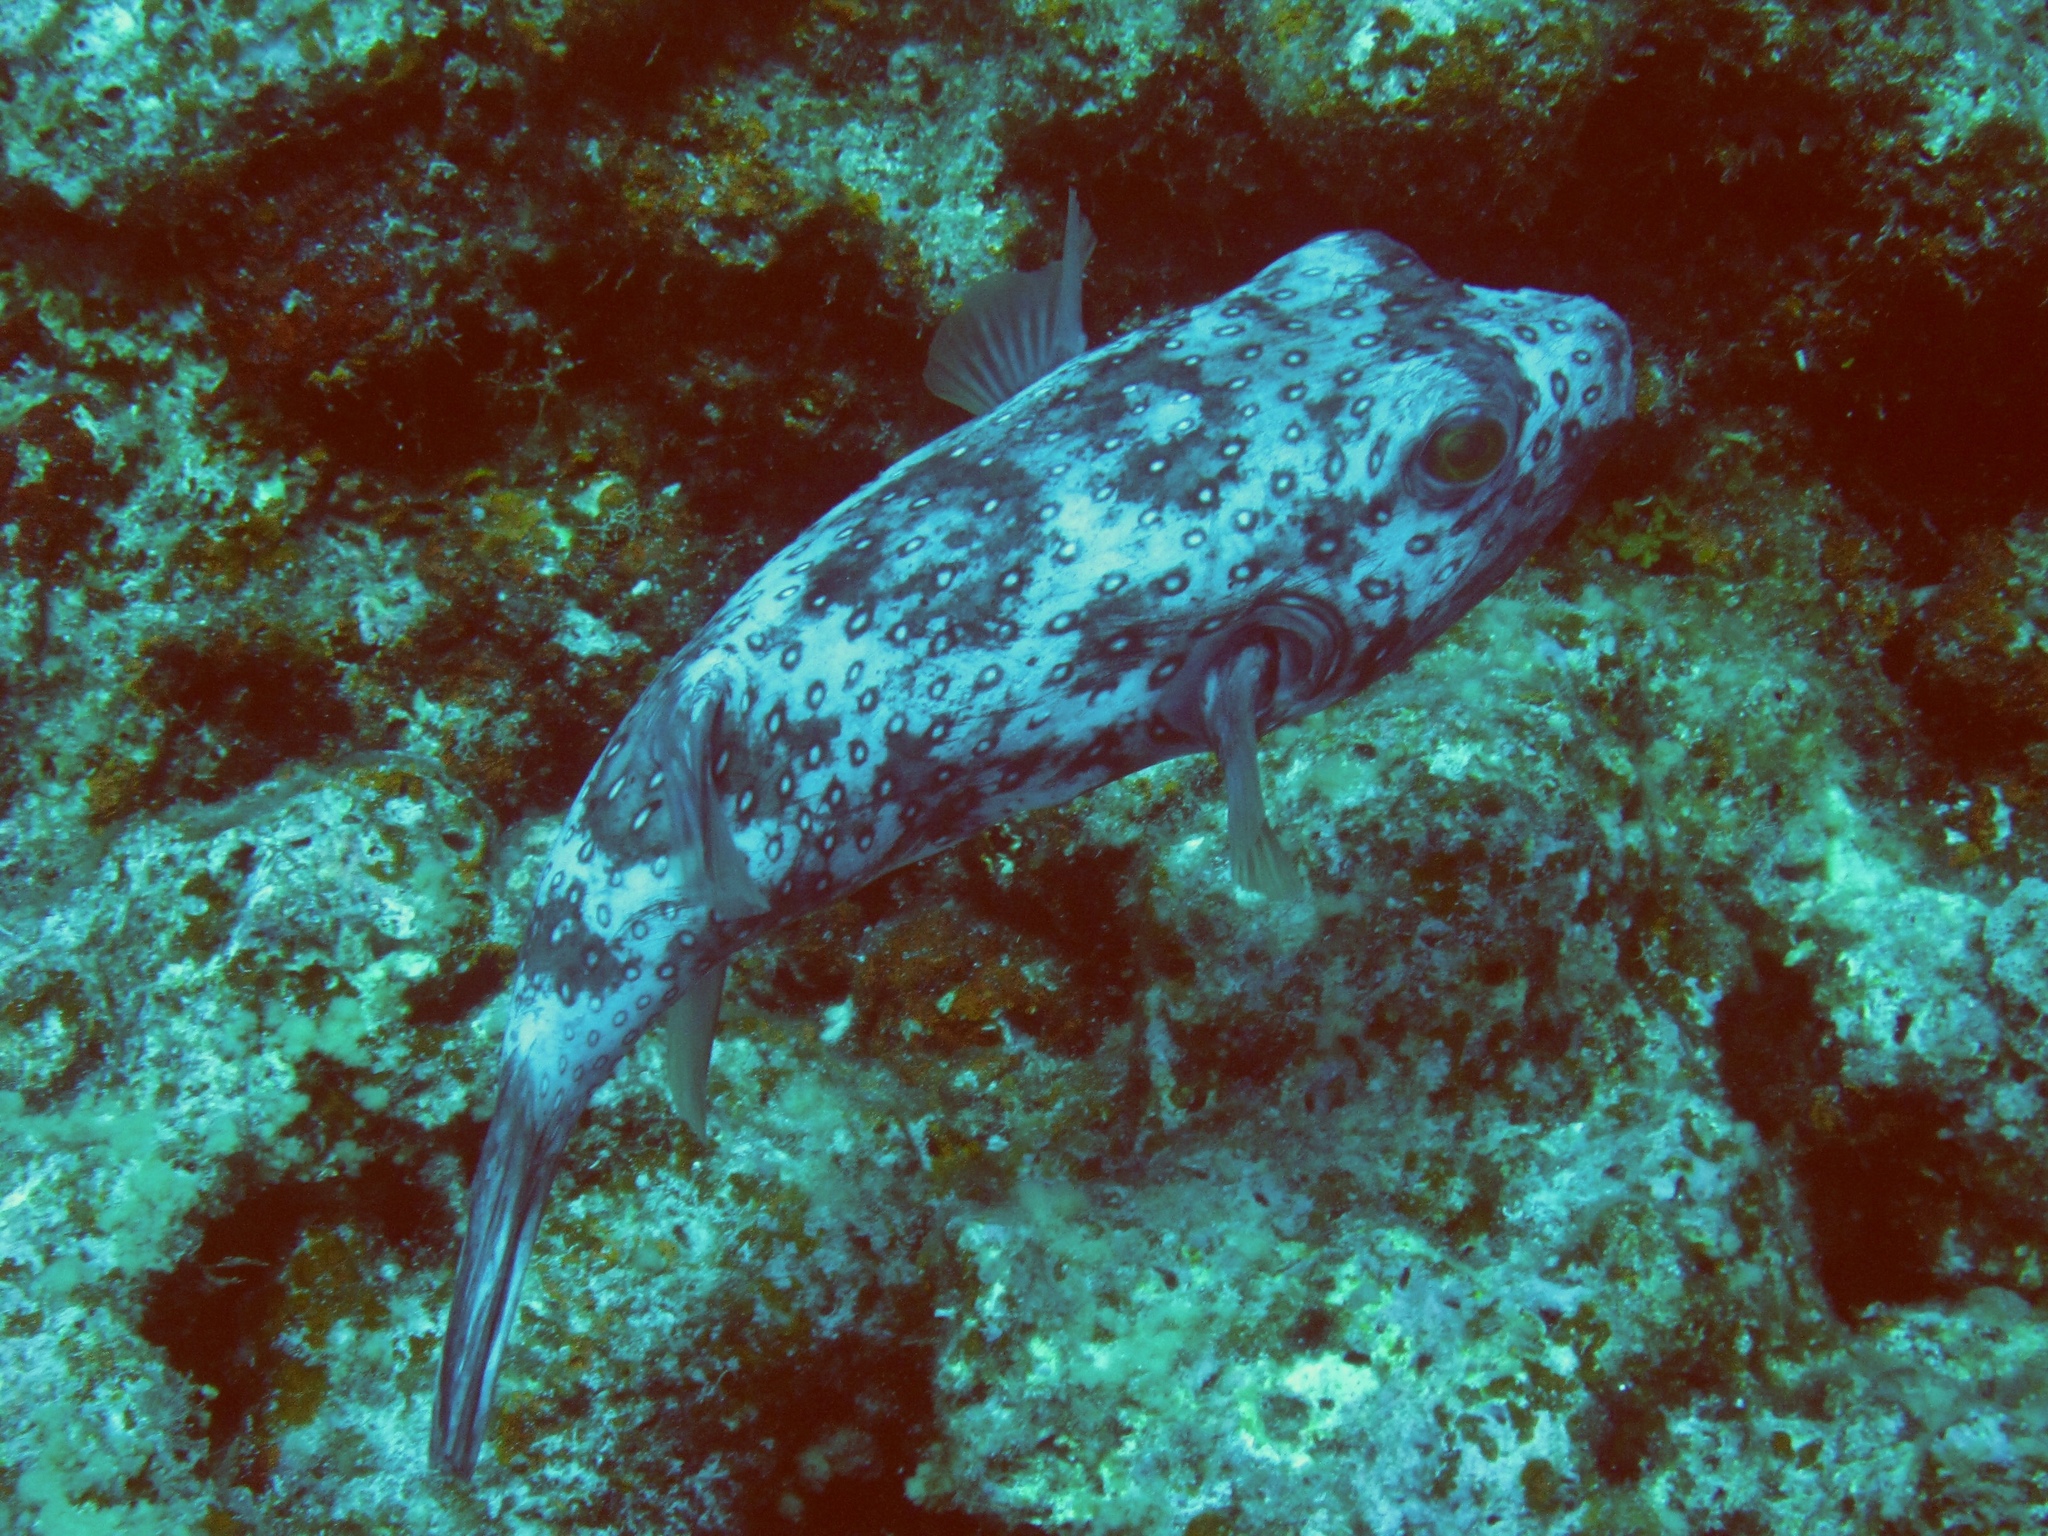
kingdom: Animalia
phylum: Chordata
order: Tetraodontiformes
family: Tetraodontidae
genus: Arothron
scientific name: Arothron hispidus
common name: Stripebelly puffer
